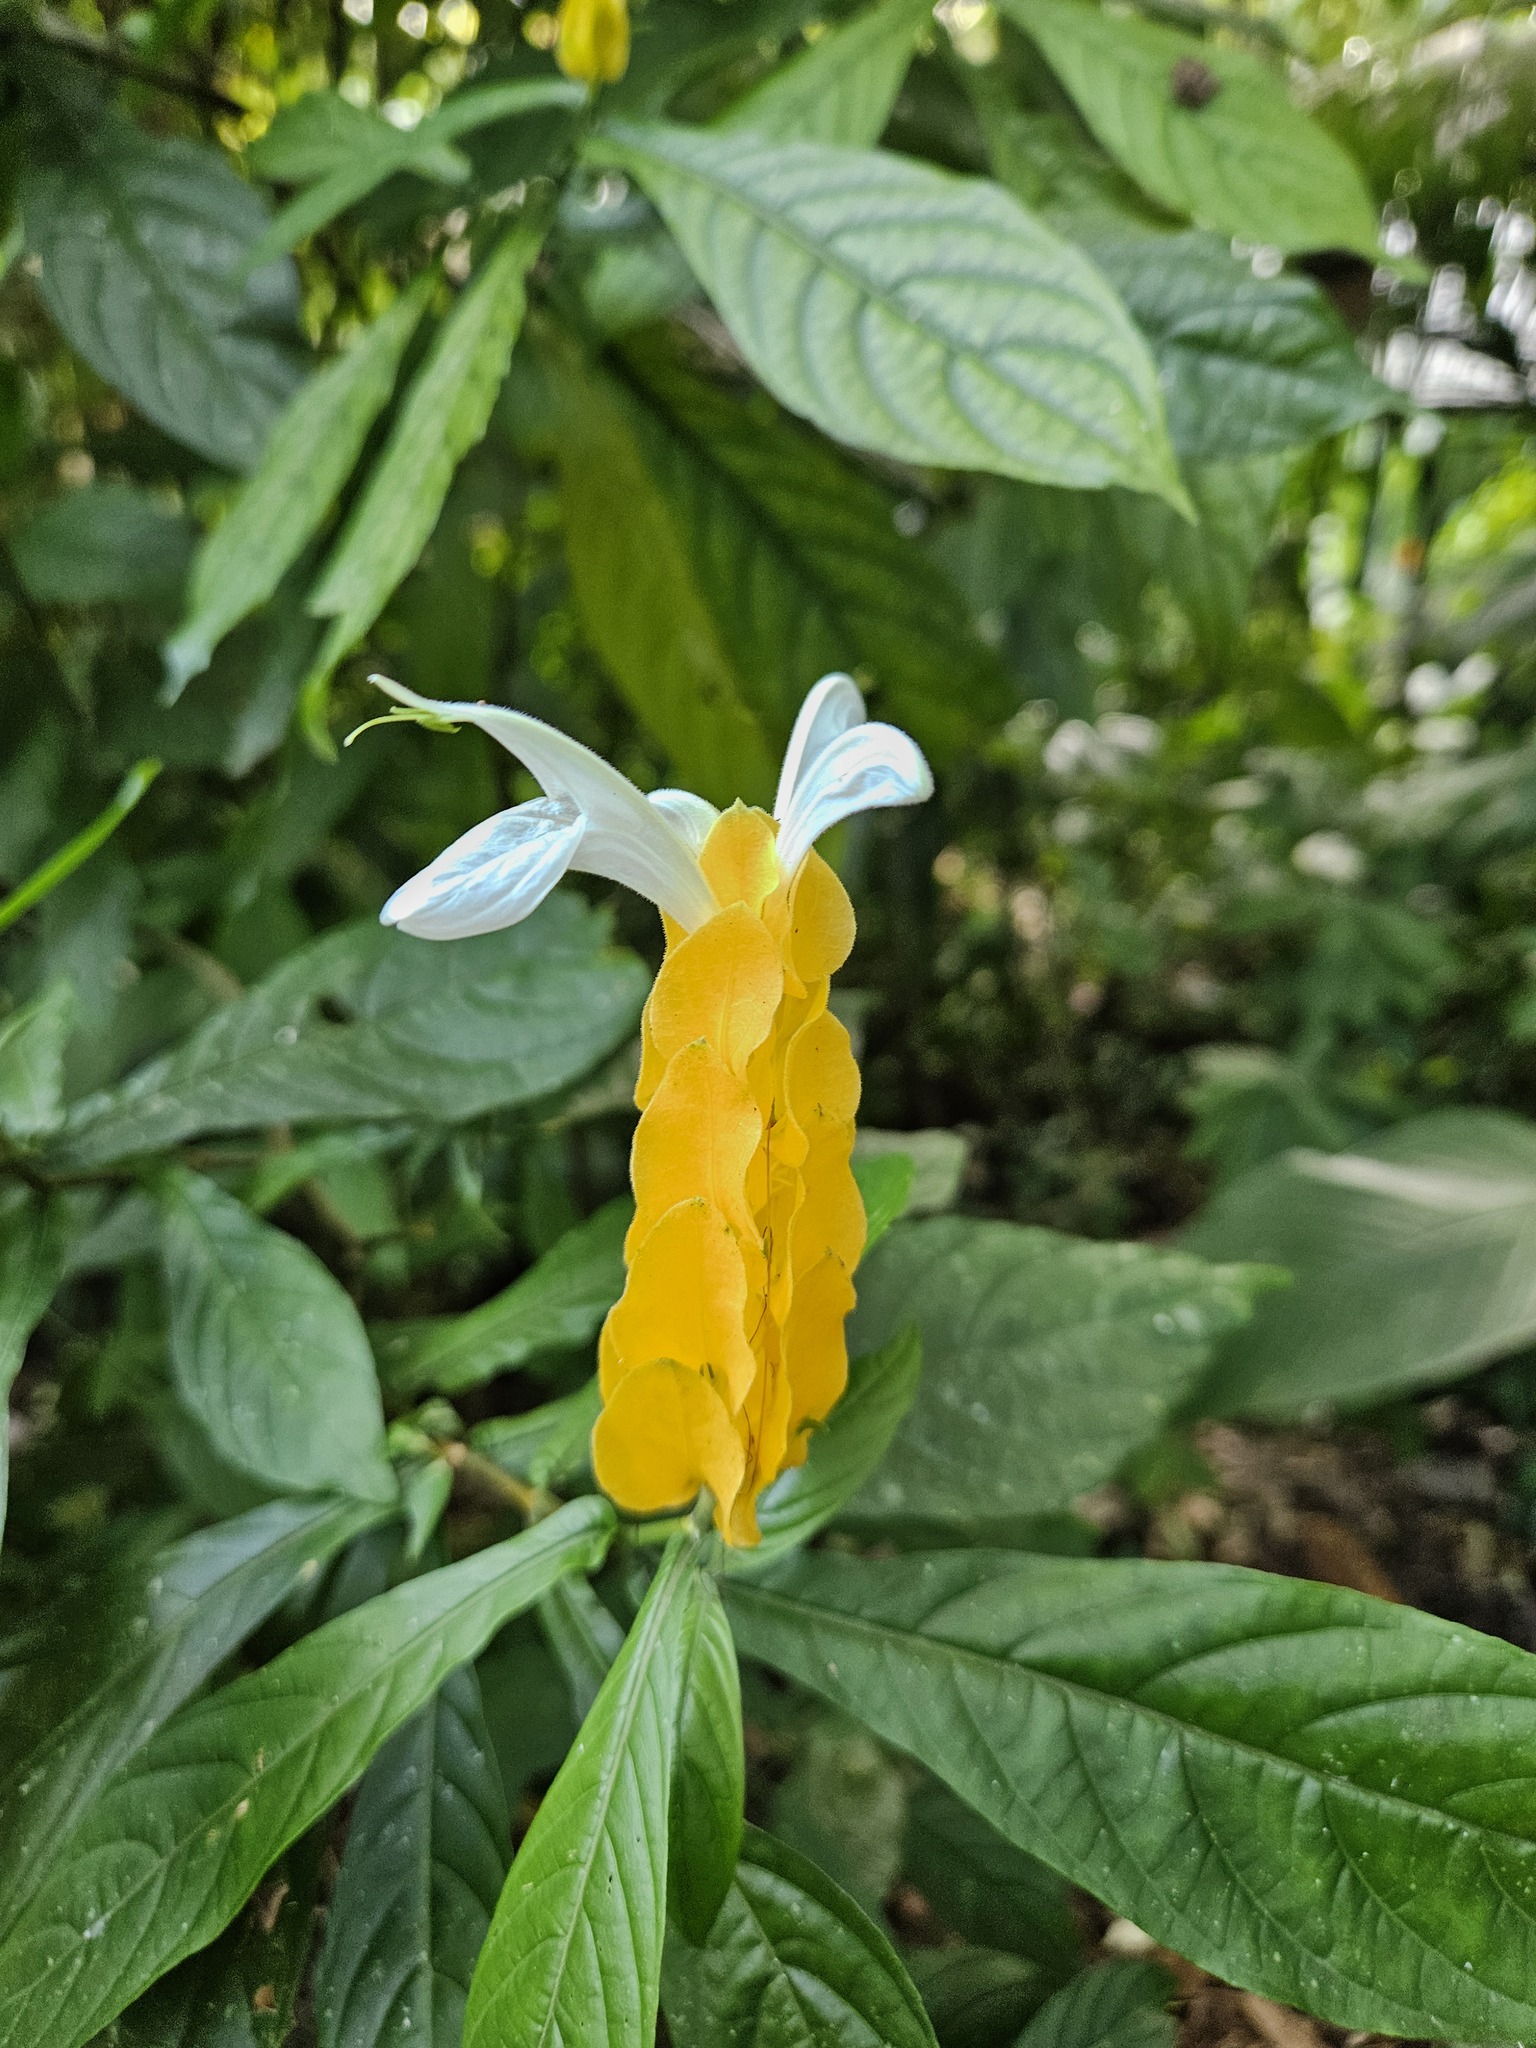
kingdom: Plantae
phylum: Tracheophyta
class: Magnoliopsida
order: Lamiales
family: Acanthaceae
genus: Pachystachys
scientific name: Pachystachys lutea
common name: Golden shrimp-plant
